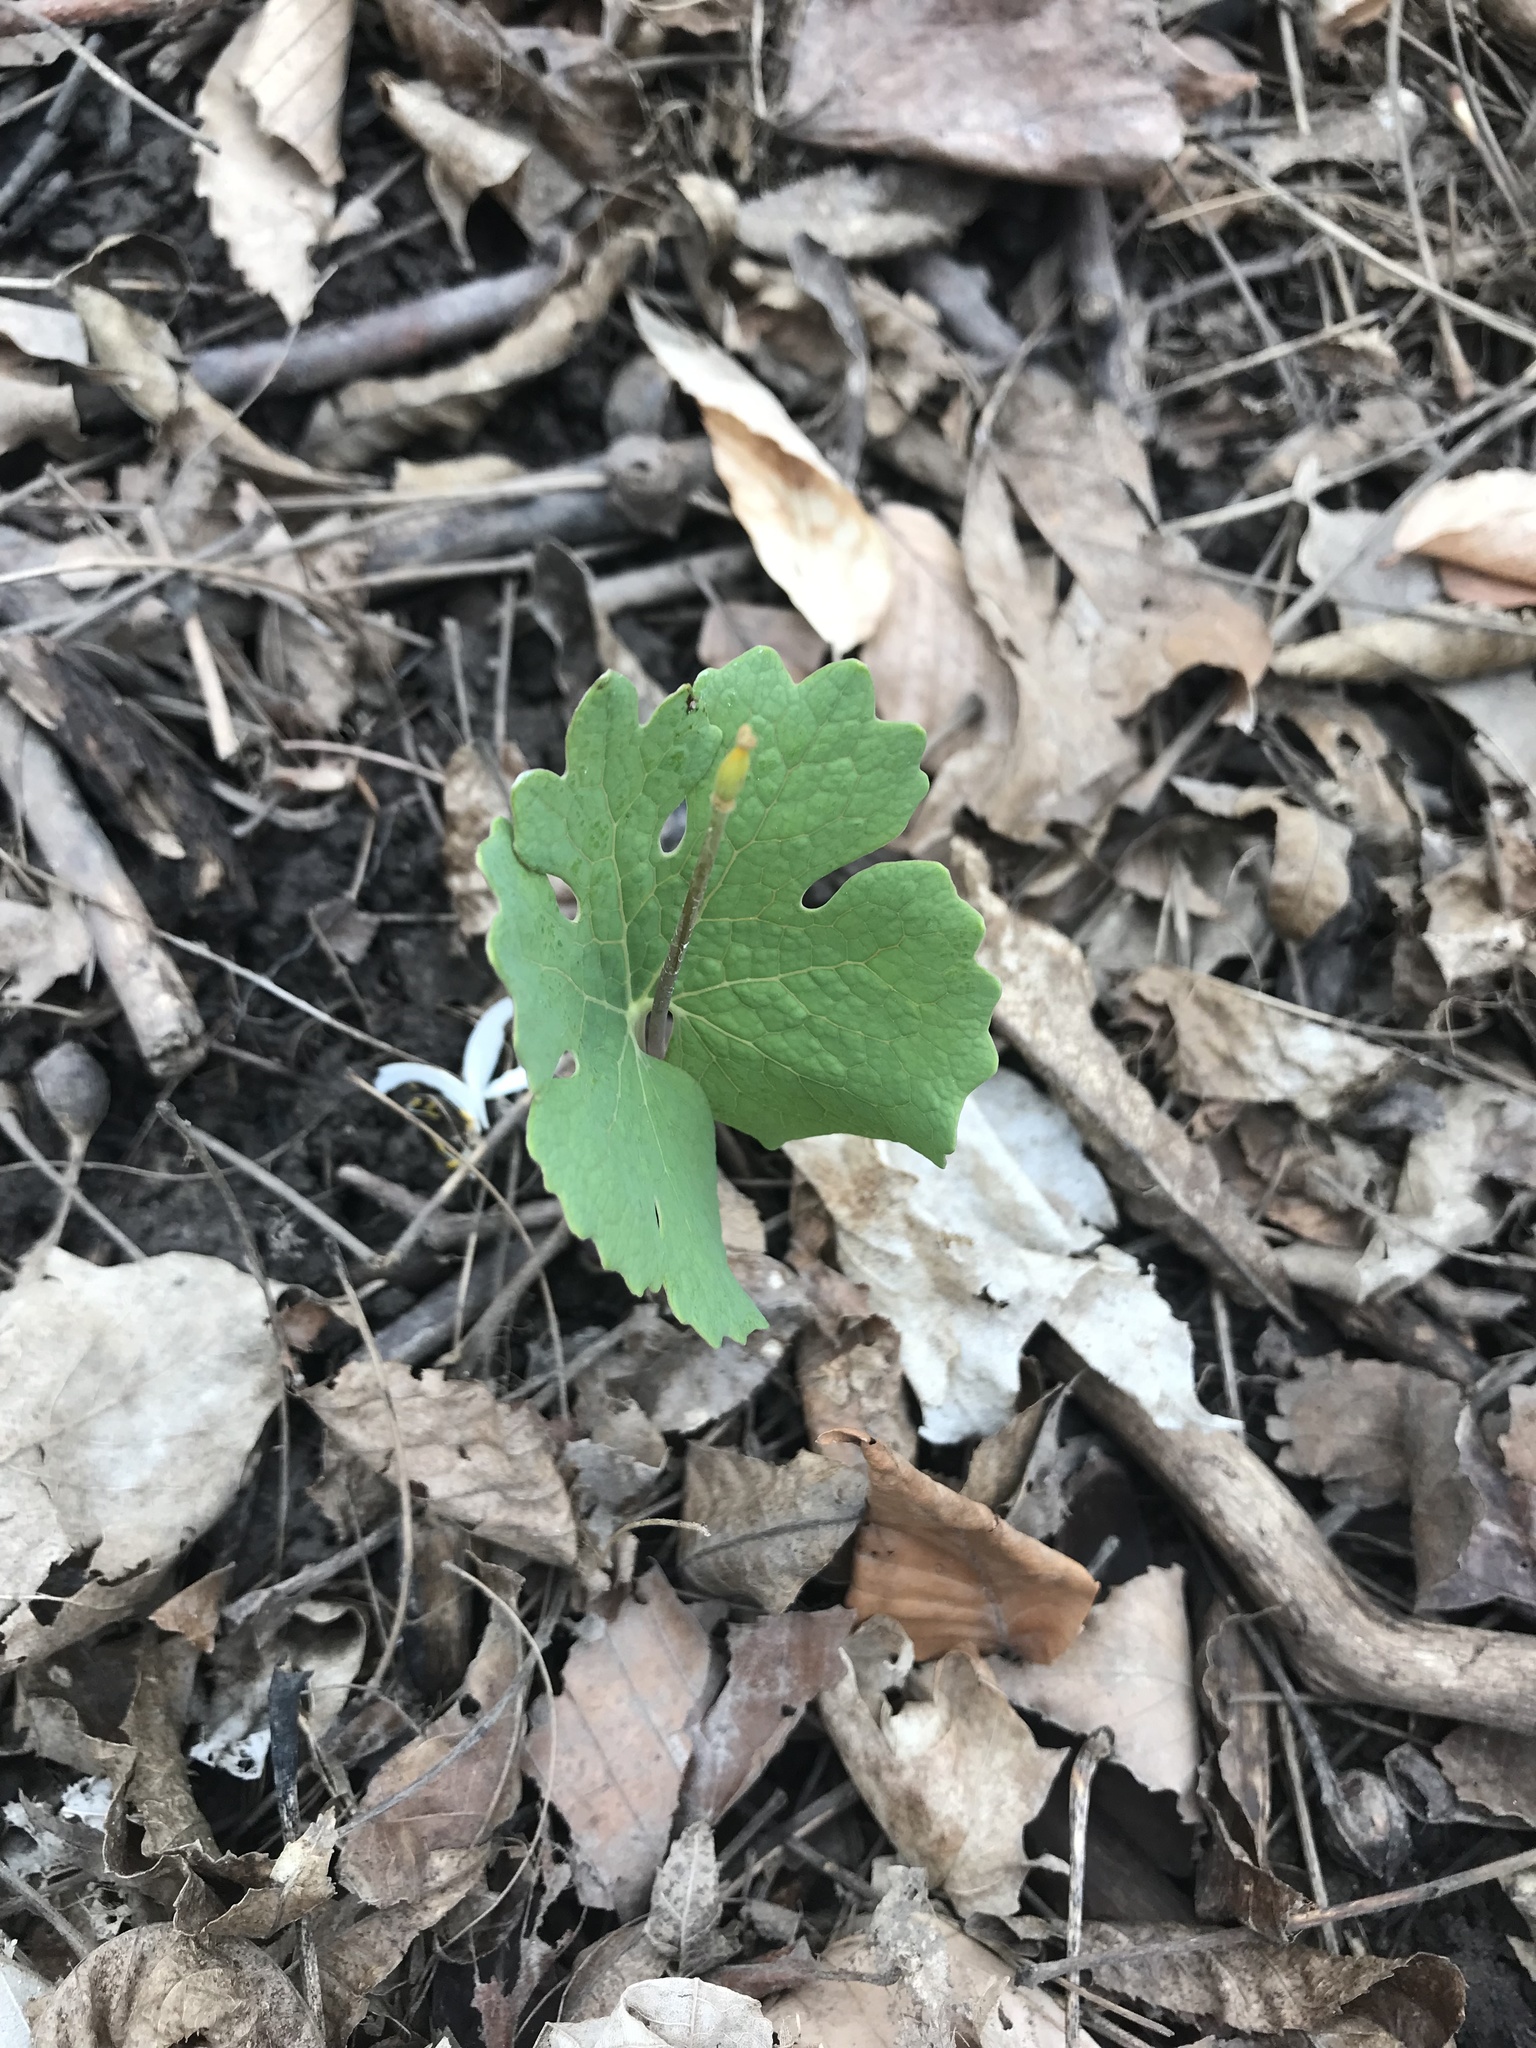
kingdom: Plantae
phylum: Tracheophyta
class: Magnoliopsida
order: Ranunculales
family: Papaveraceae
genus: Sanguinaria
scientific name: Sanguinaria canadensis
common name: Bloodroot
